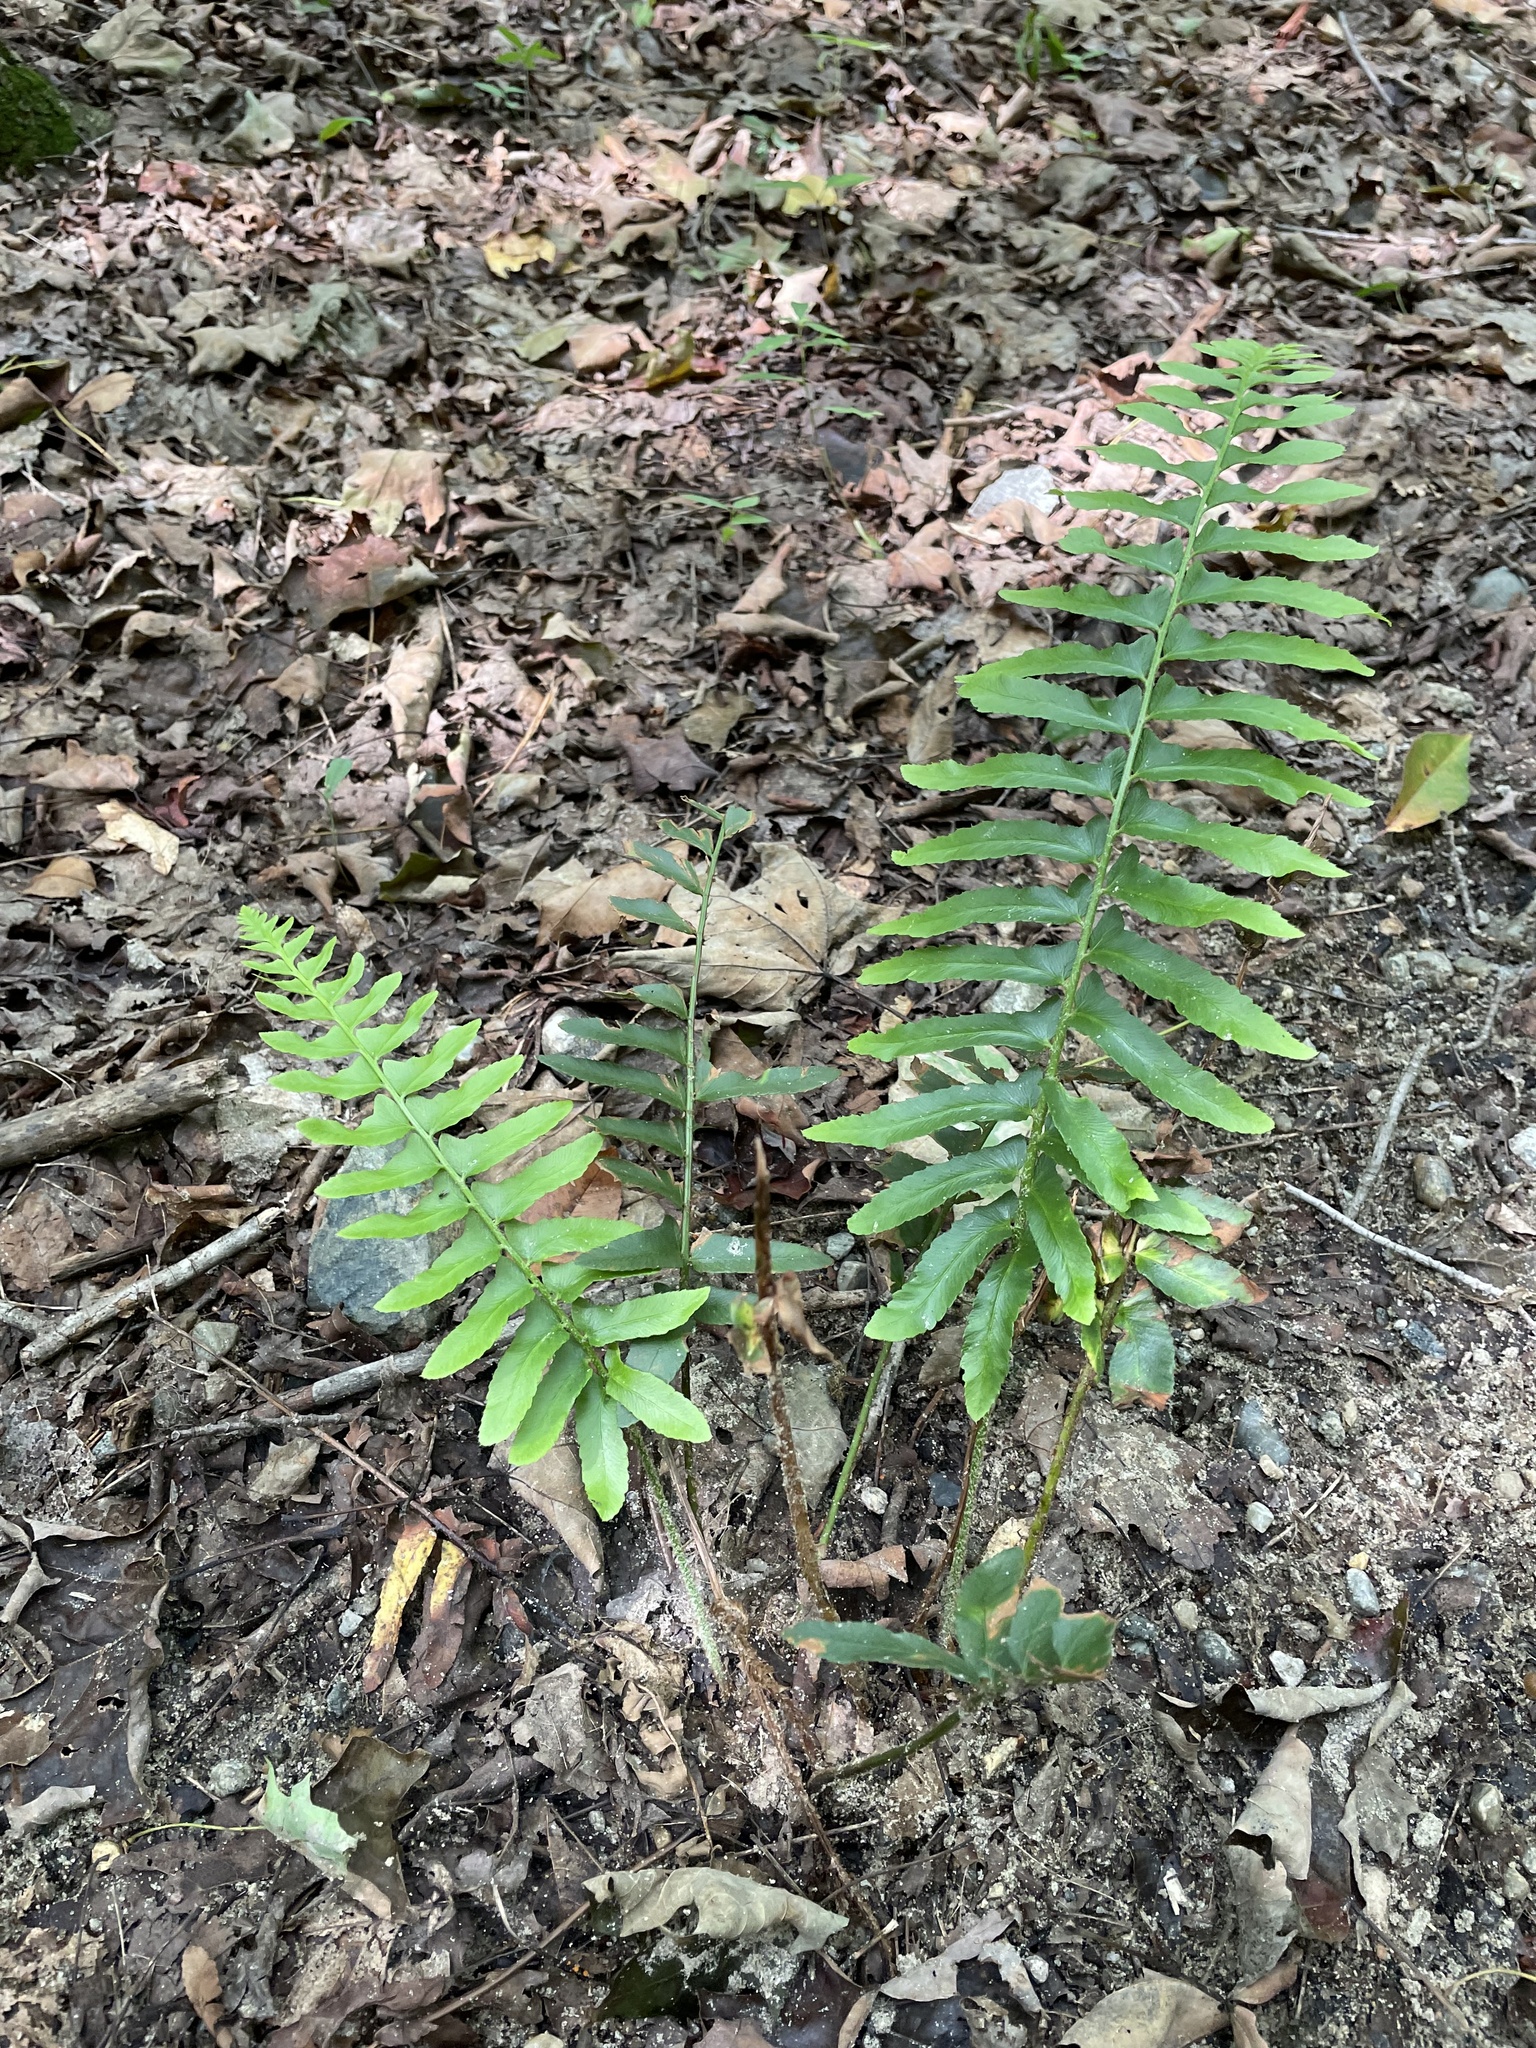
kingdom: Plantae
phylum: Tracheophyta
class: Polypodiopsida
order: Polypodiales
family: Dryopteridaceae
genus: Polystichum
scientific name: Polystichum acrostichoides
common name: Christmas fern
